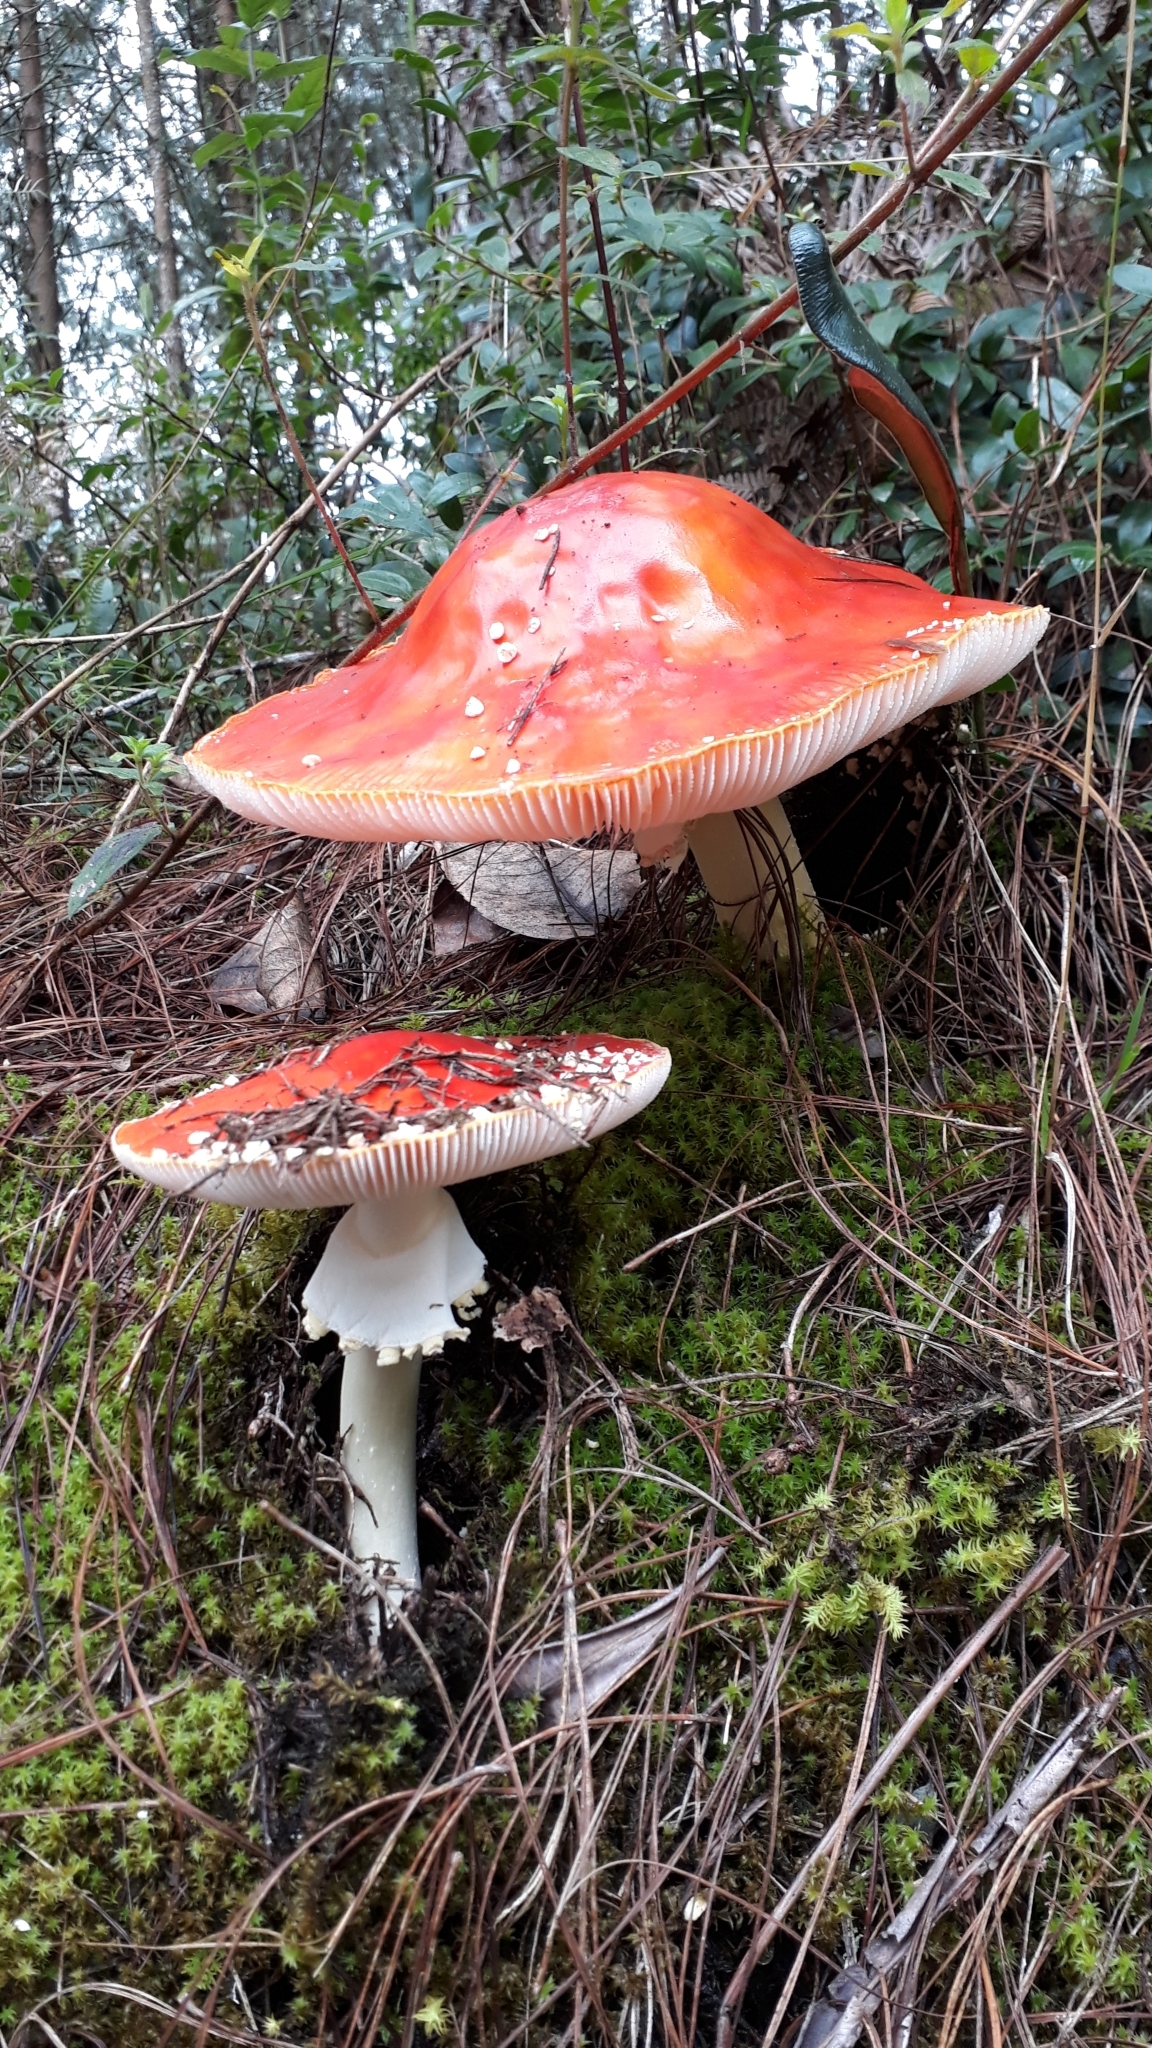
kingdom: Fungi
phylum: Basidiomycota
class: Agaricomycetes
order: Agaricales
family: Amanitaceae
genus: Amanita
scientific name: Amanita muscaria
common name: Fly agaric
